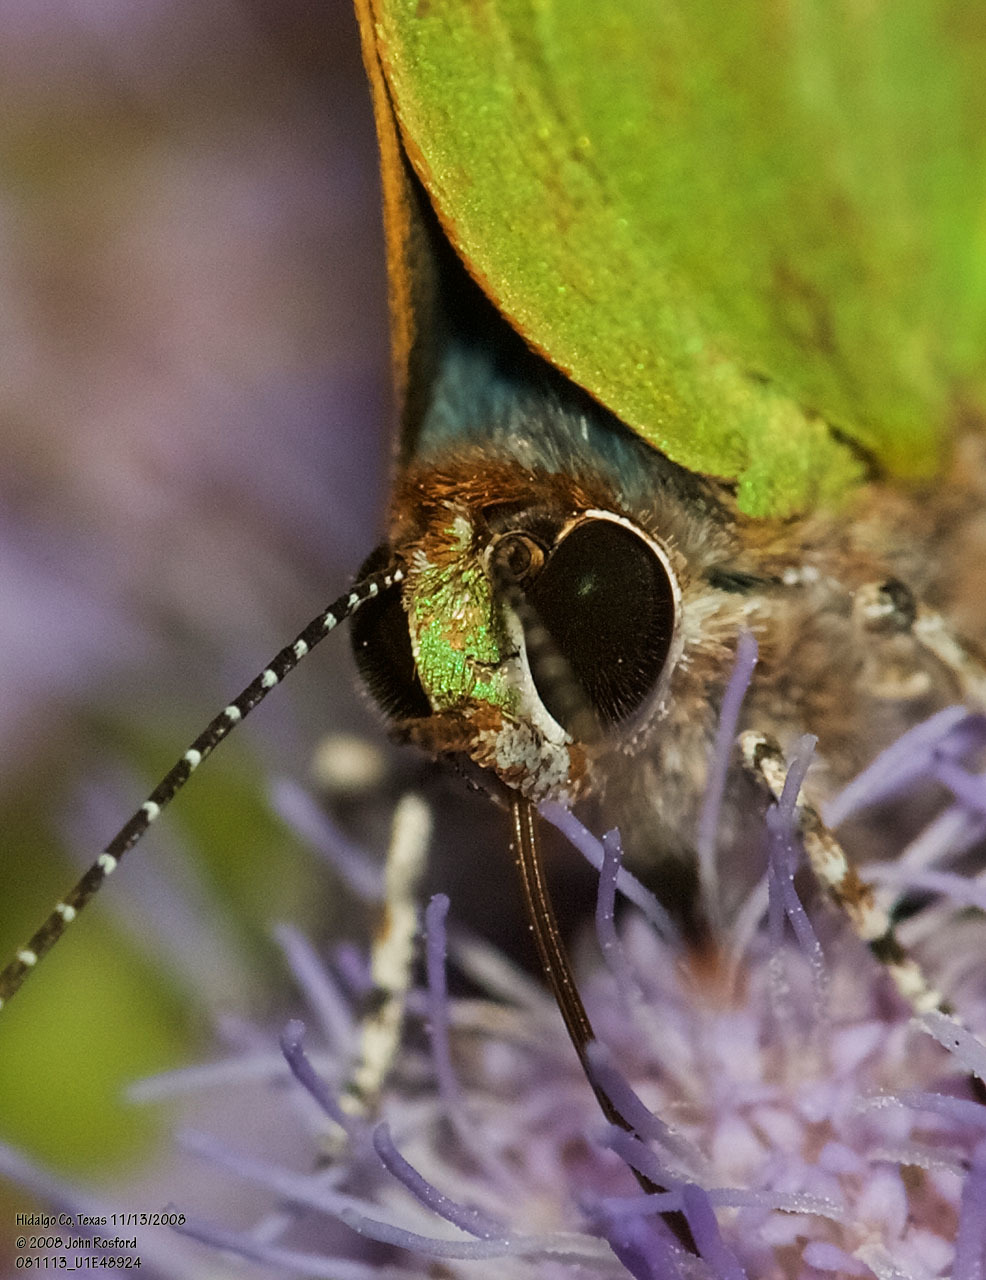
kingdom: Animalia
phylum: Arthropoda
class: Insecta
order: Lepidoptera
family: Lycaenidae
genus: Thecla
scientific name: Thecla herodotus
